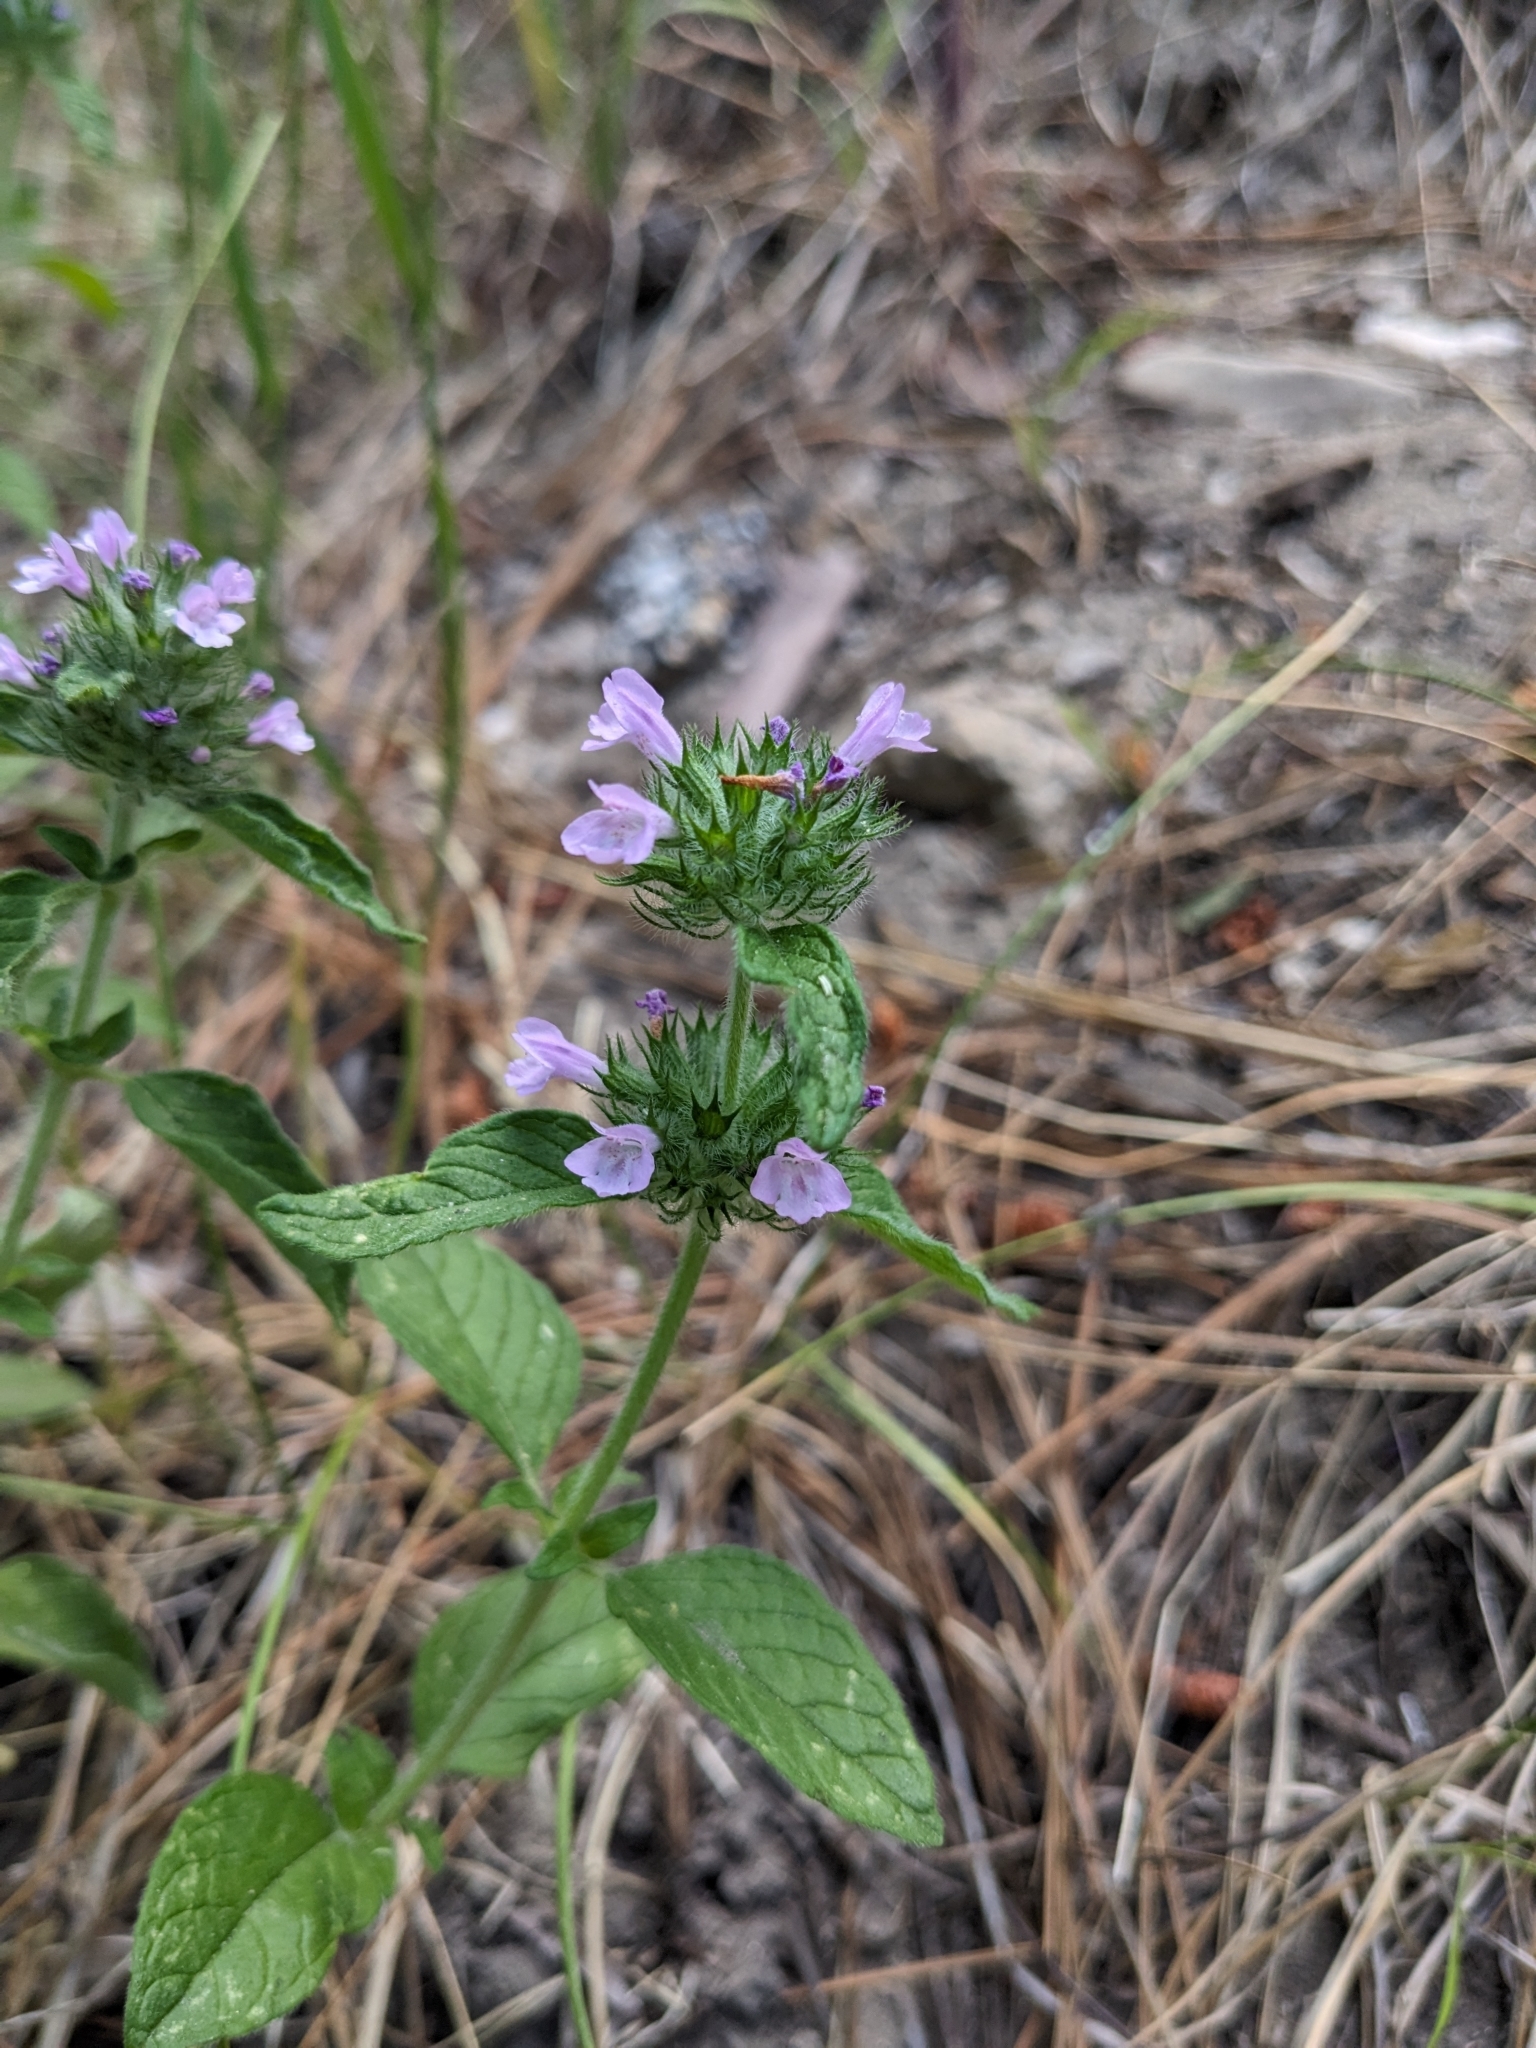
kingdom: Plantae
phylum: Tracheophyta
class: Magnoliopsida
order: Lamiales
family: Lamiaceae
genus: Clinopodium
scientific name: Clinopodium vulgare
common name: Wild basil
